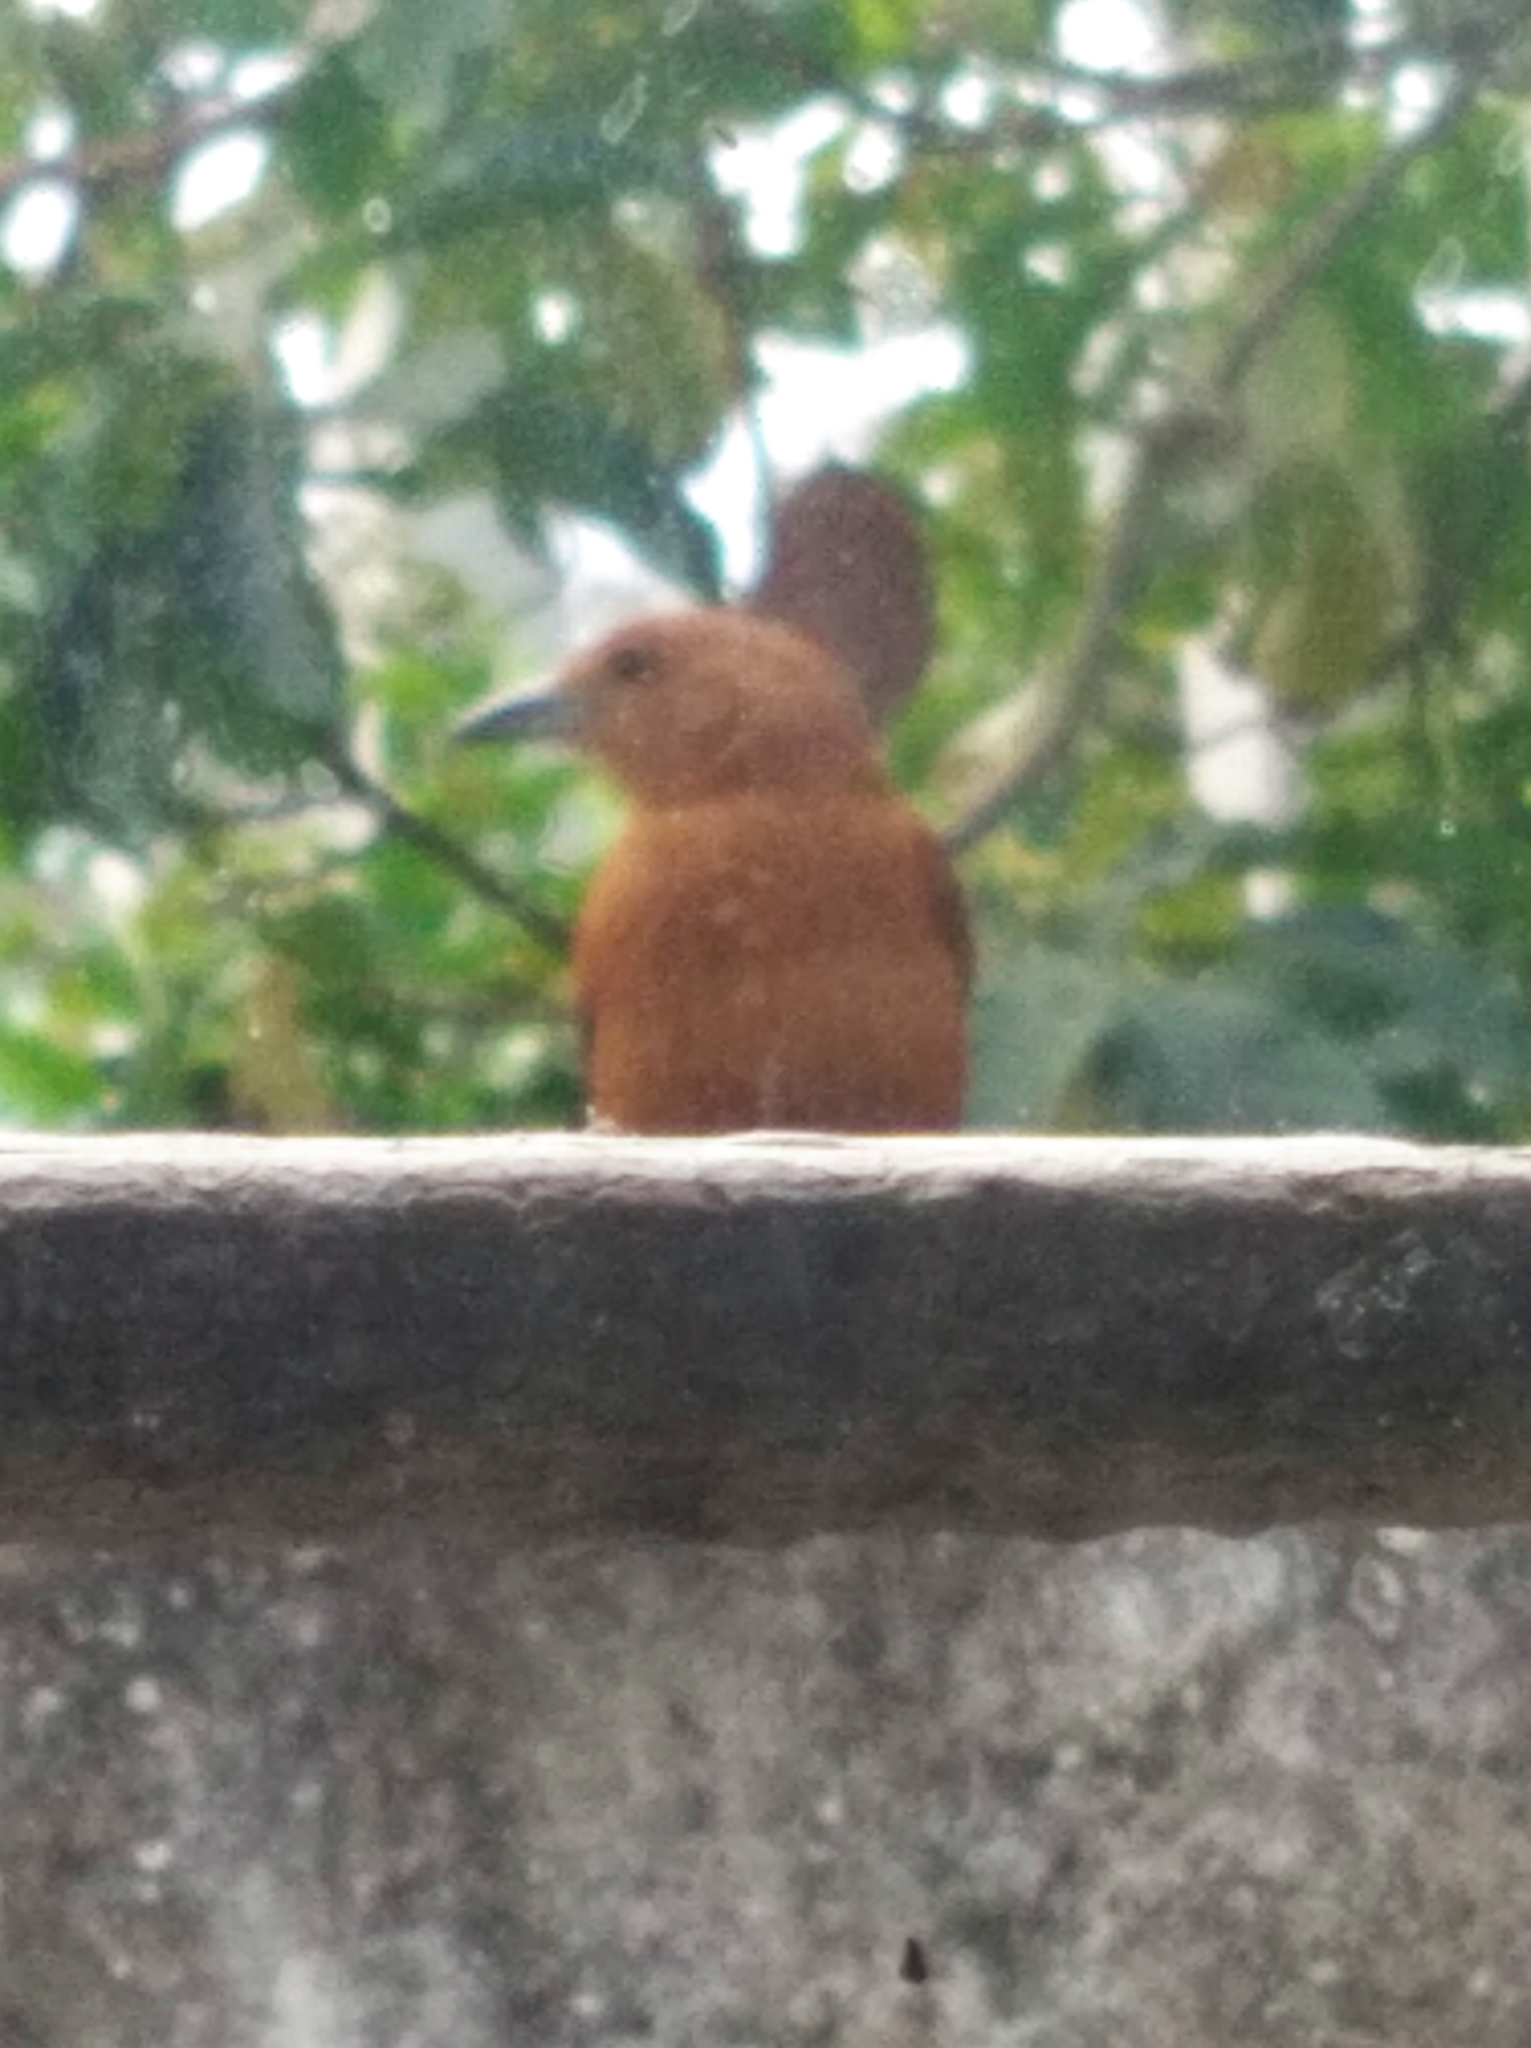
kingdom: Animalia
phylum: Chordata
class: Aves
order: Passeriformes
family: Thraupidae
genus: Tachyphonus
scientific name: Tachyphonus rufus
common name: White-lined tanager
